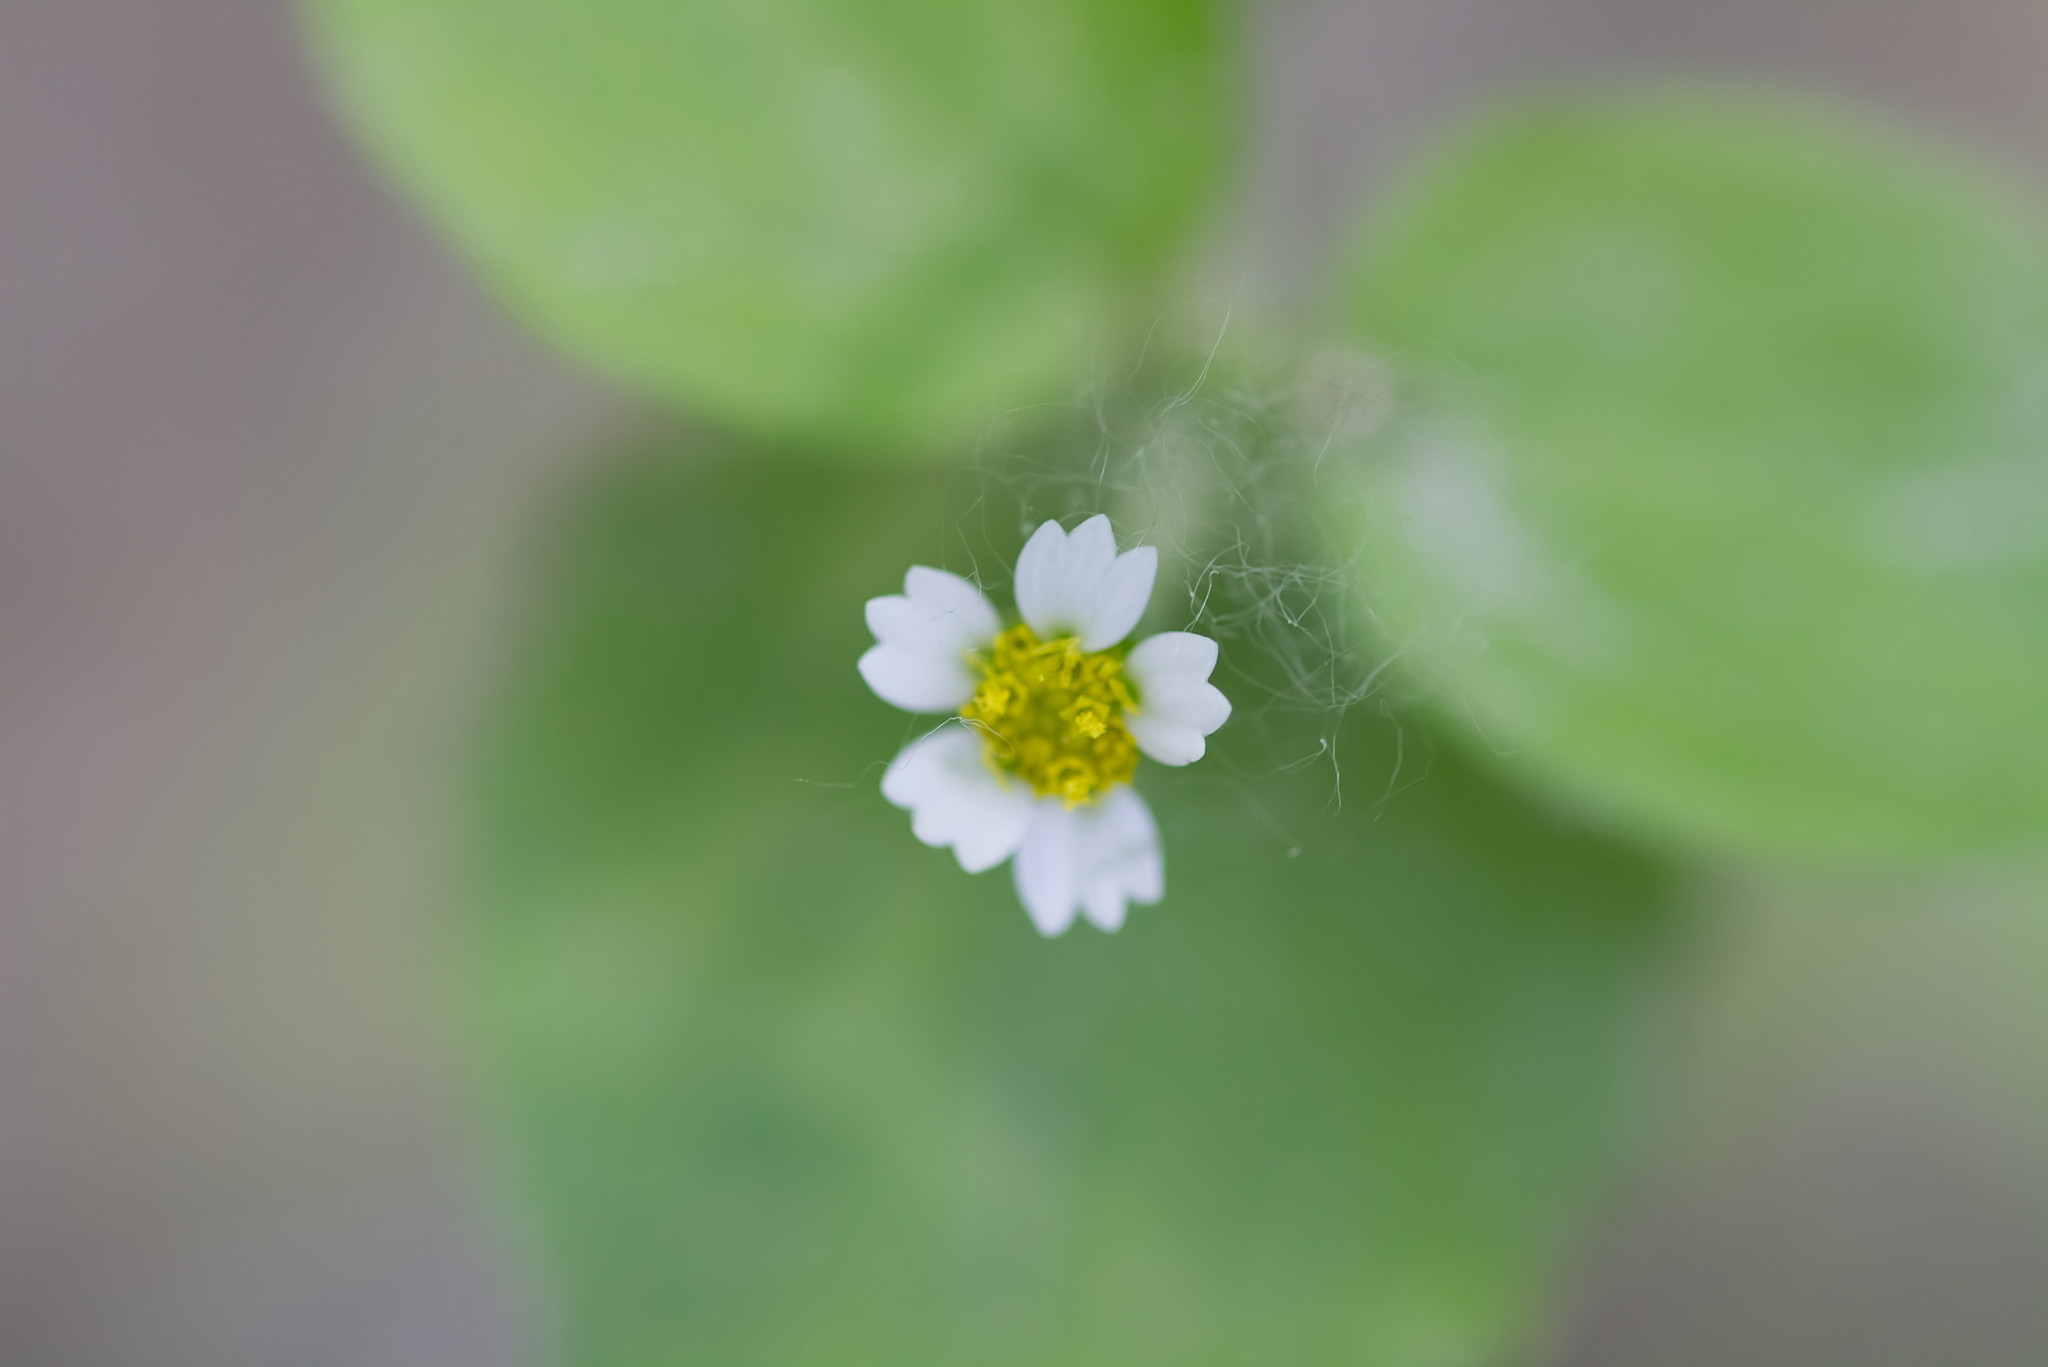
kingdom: Plantae
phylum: Tracheophyta
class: Magnoliopsida
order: Asterales
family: Asteraceae
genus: Galinsoga
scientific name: Galinsoga quadriradiata
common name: Shaggy soldier
